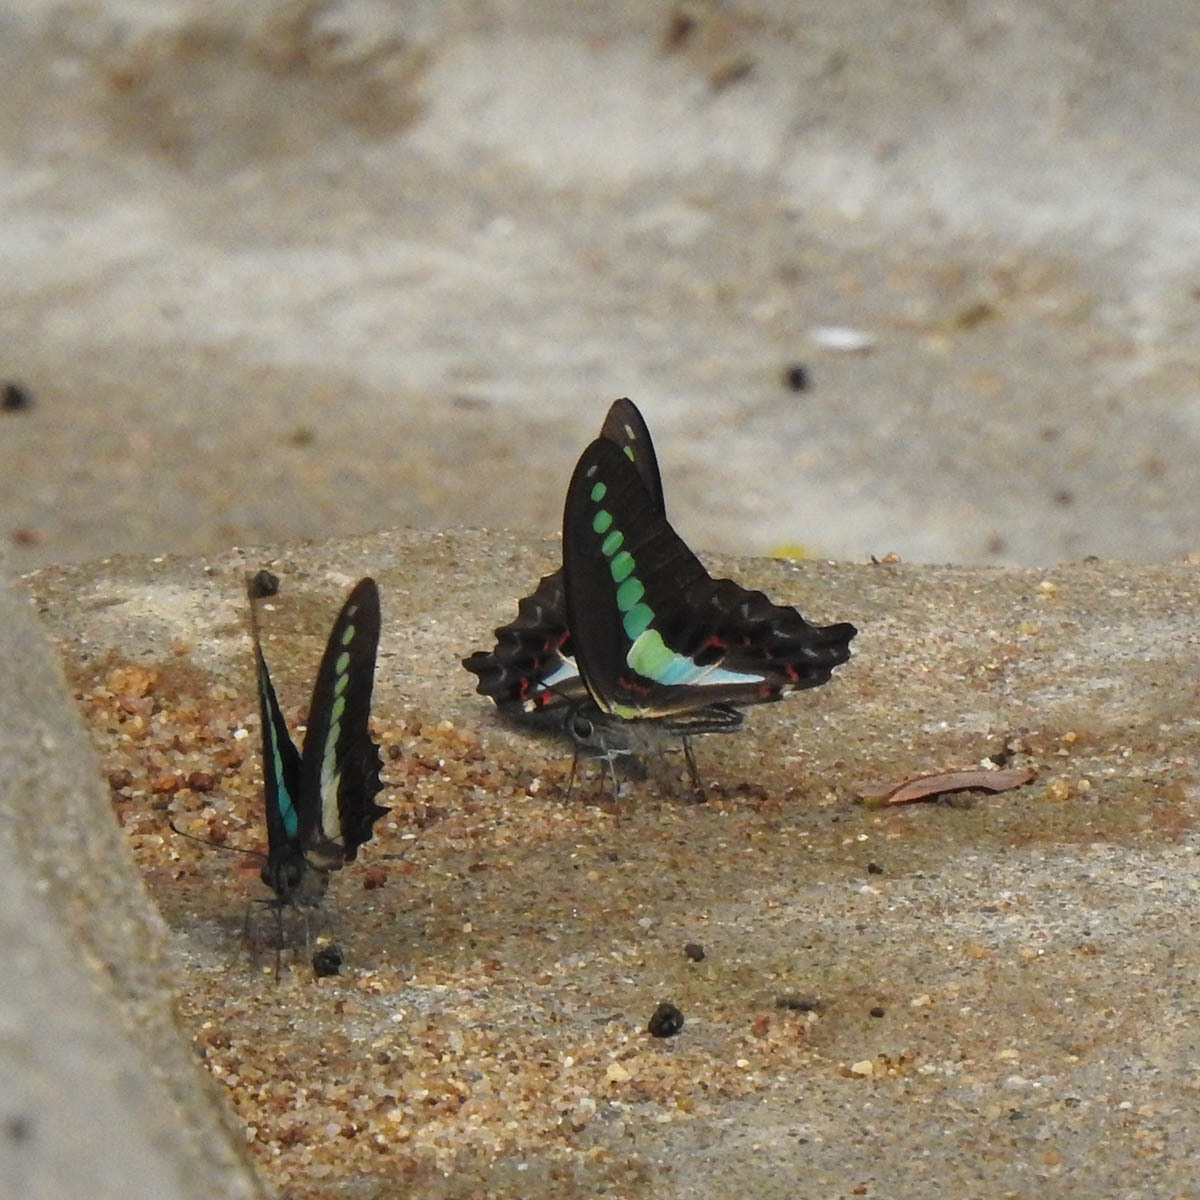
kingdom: Animalia
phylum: Arthropoda
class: Insecta
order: Lepidoptera
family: Papilionidae
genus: Graphium
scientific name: Graphium
